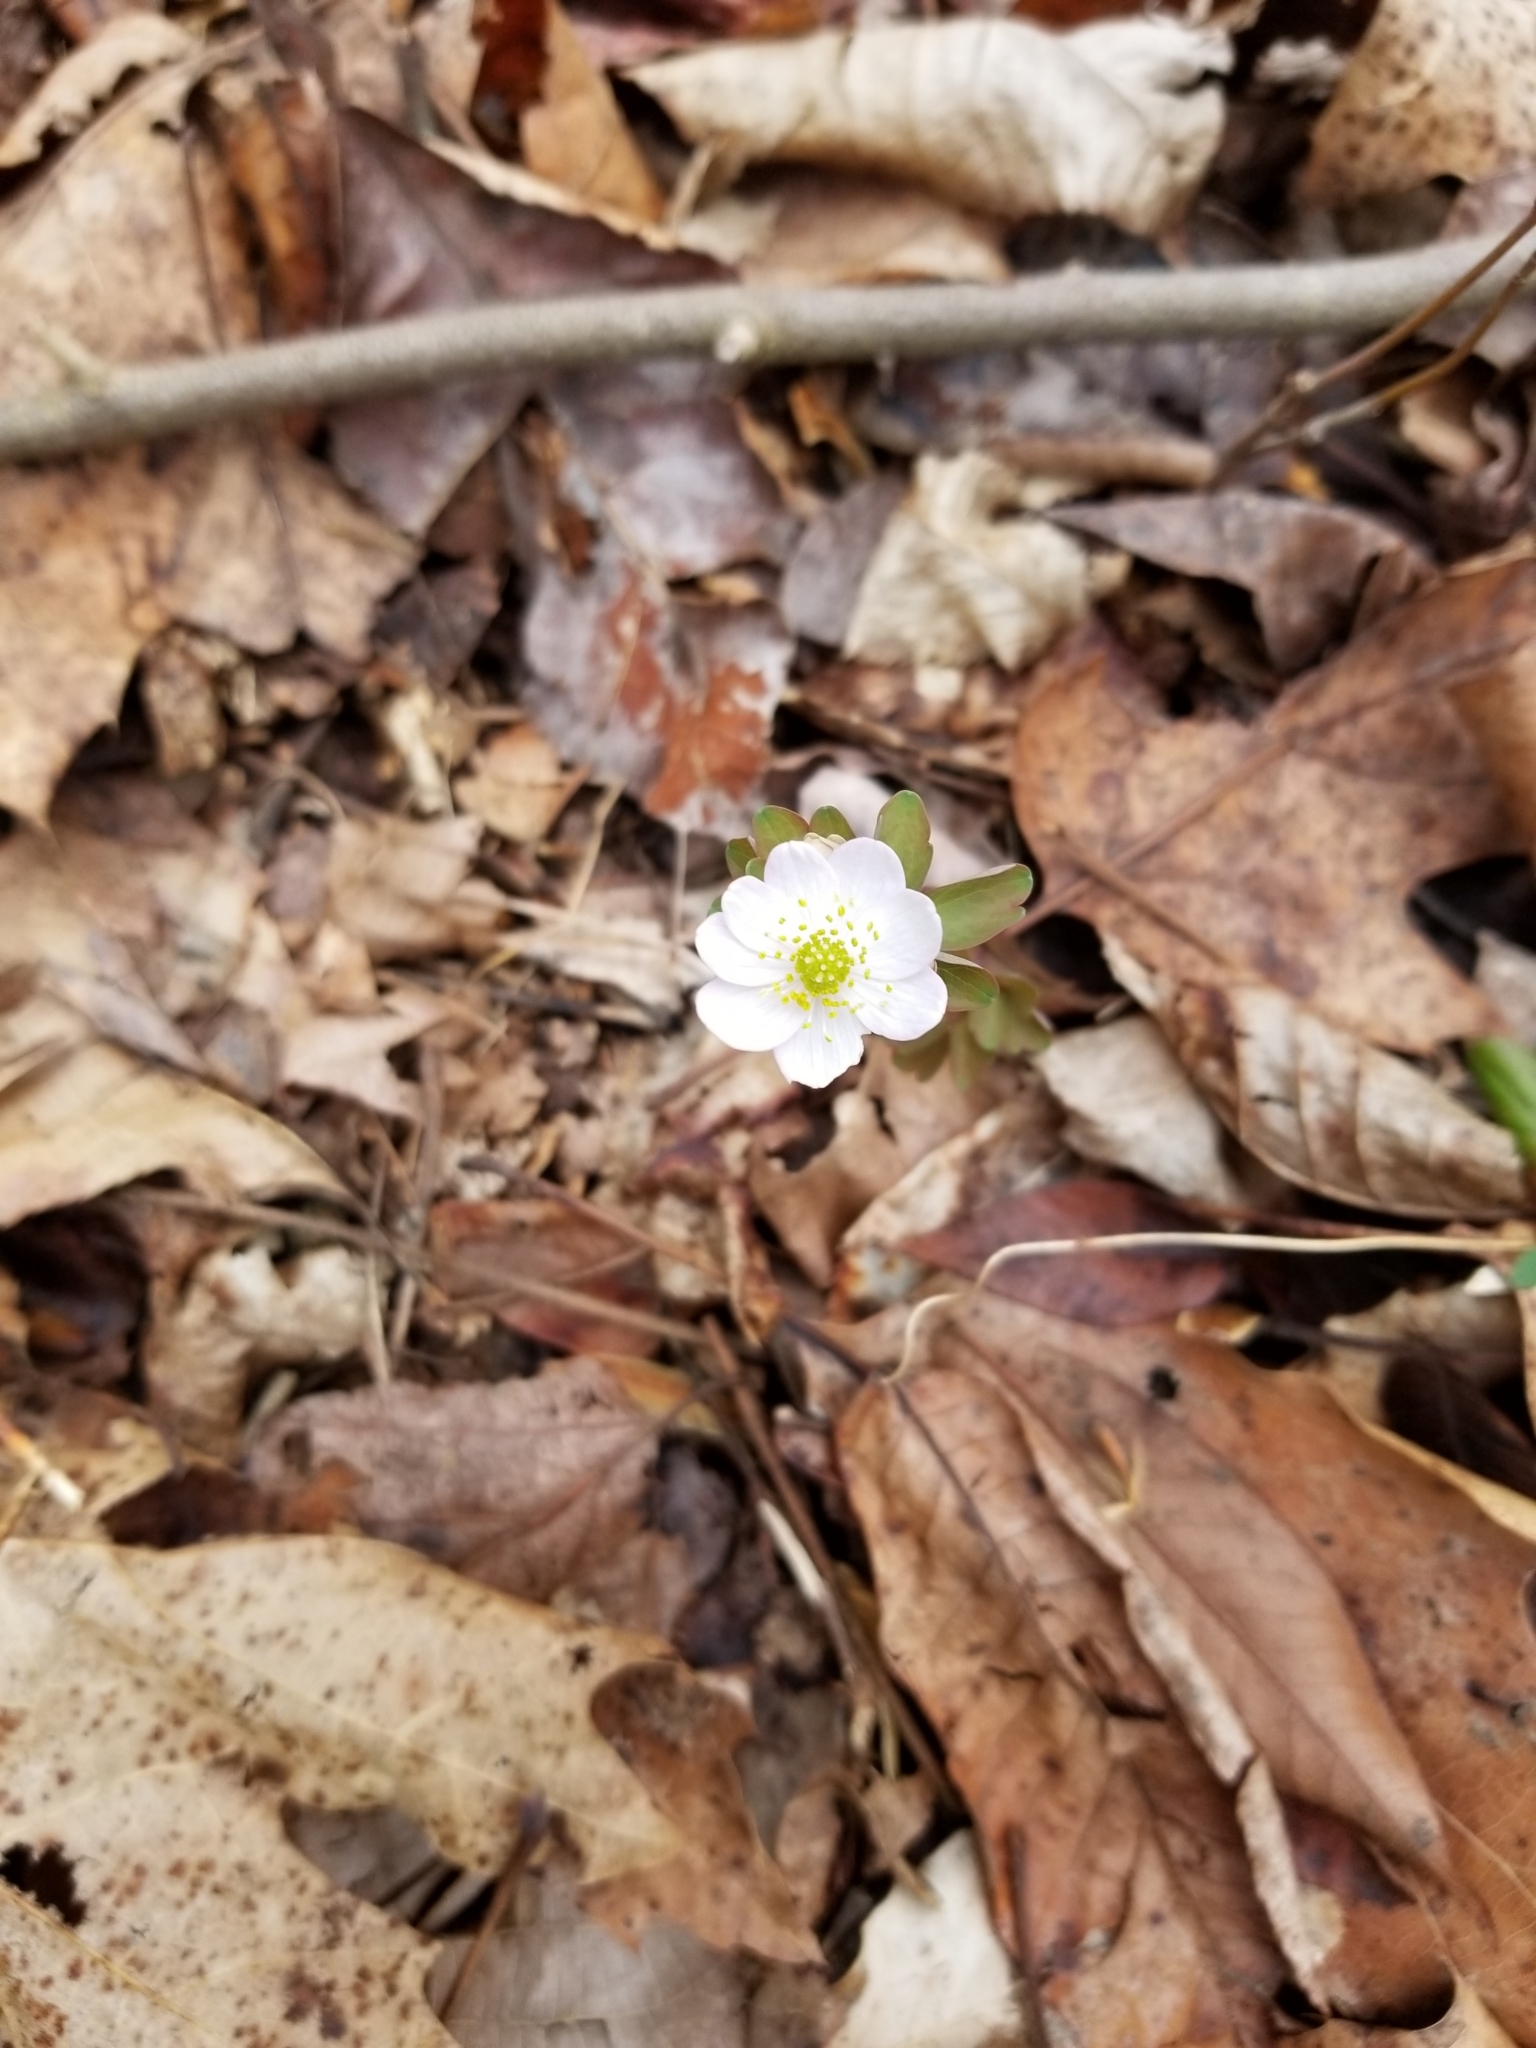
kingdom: Plantae
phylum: Tracheophyta
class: Magnoliopsida
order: Ranunculales
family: Ranunculaceae
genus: Thalictrum
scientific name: Thalictrum thalictroides
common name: Rue-anemone
